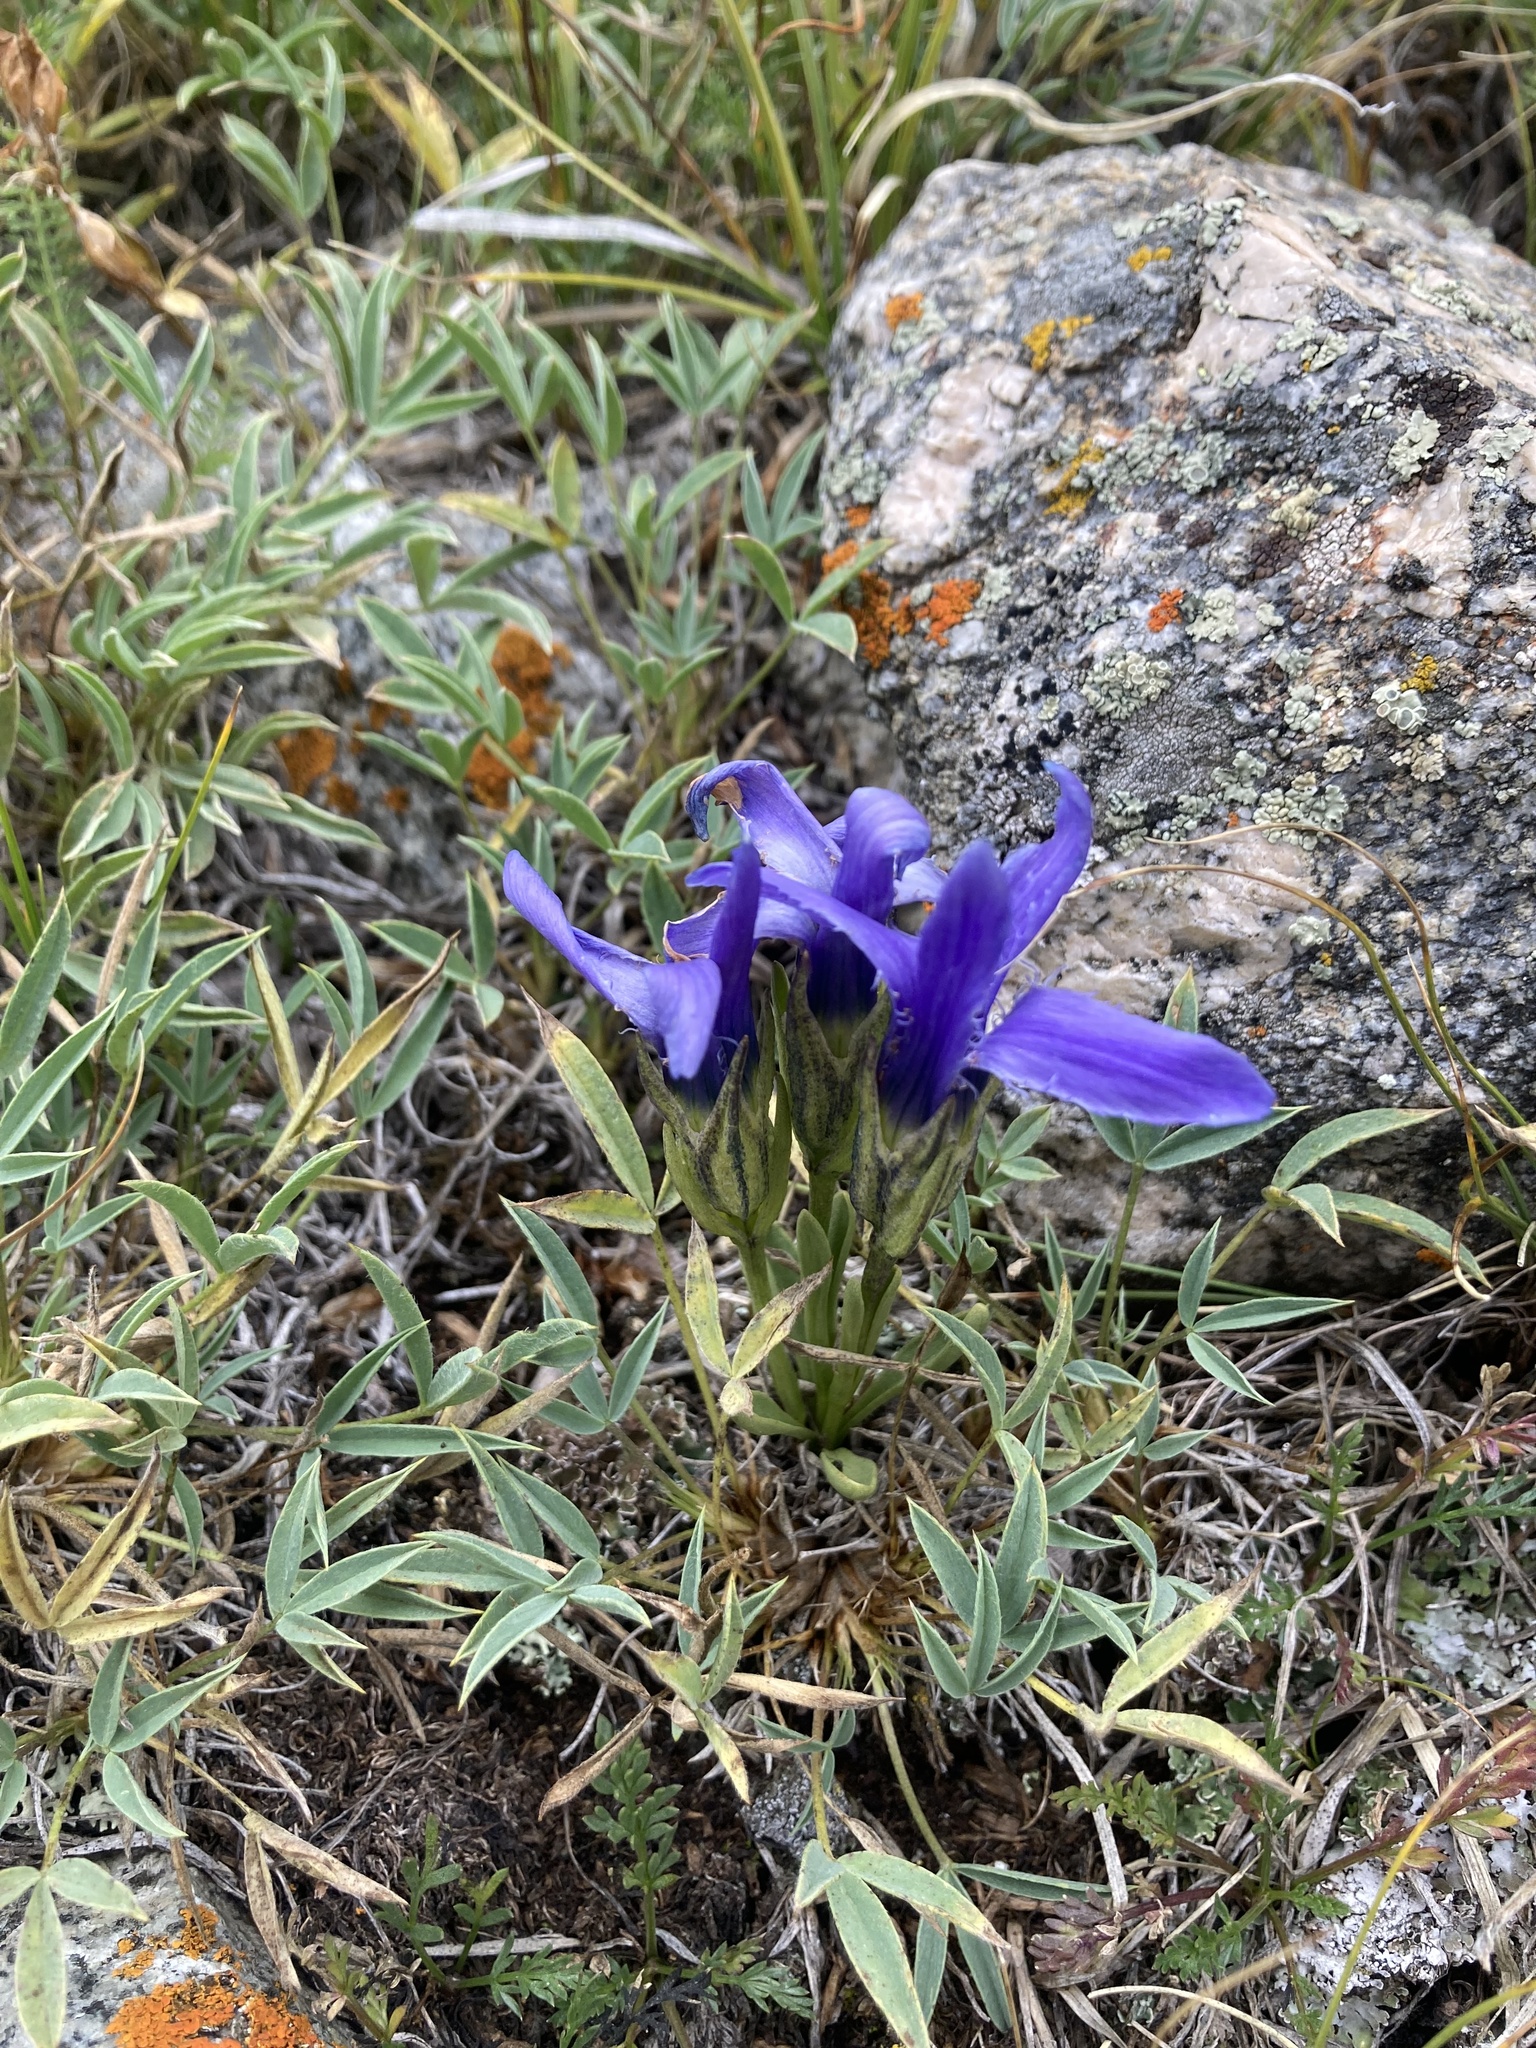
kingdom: Plantae
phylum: Tracheophyta
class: Magnoliopsida
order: Gentianales
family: Gentianaceae
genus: Gentianopsis
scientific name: Gentianopsis barbellata
